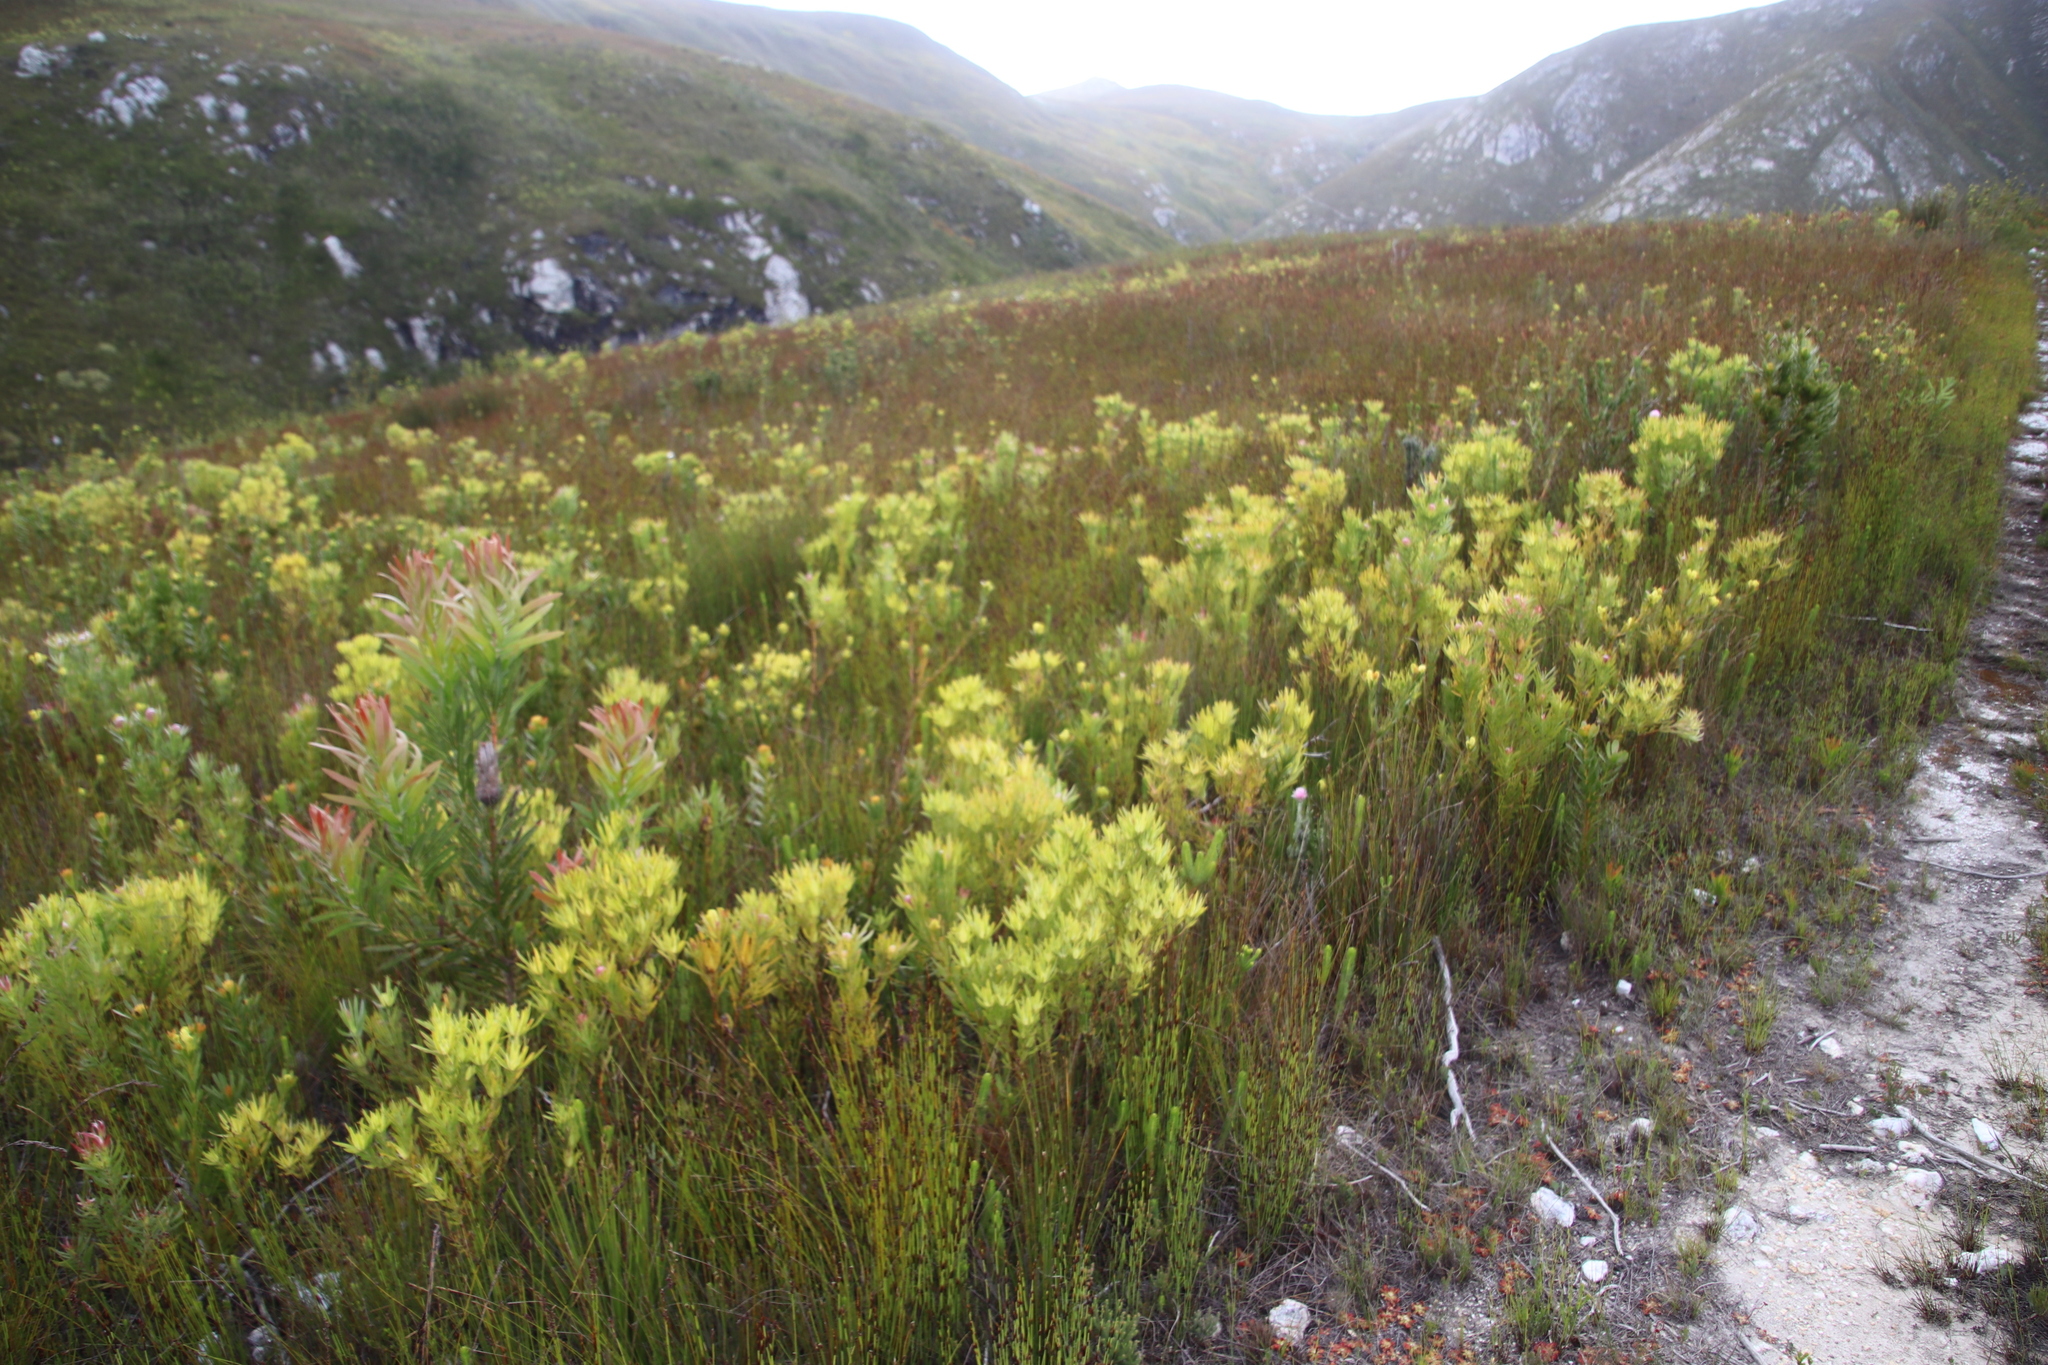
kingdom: Plantae
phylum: Tracheophyta
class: Magnoliopsida
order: Proteales
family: Proteaceae
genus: Leucadendron
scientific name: Leucadendron xanthoconus
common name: Sickle-leaf conebush
